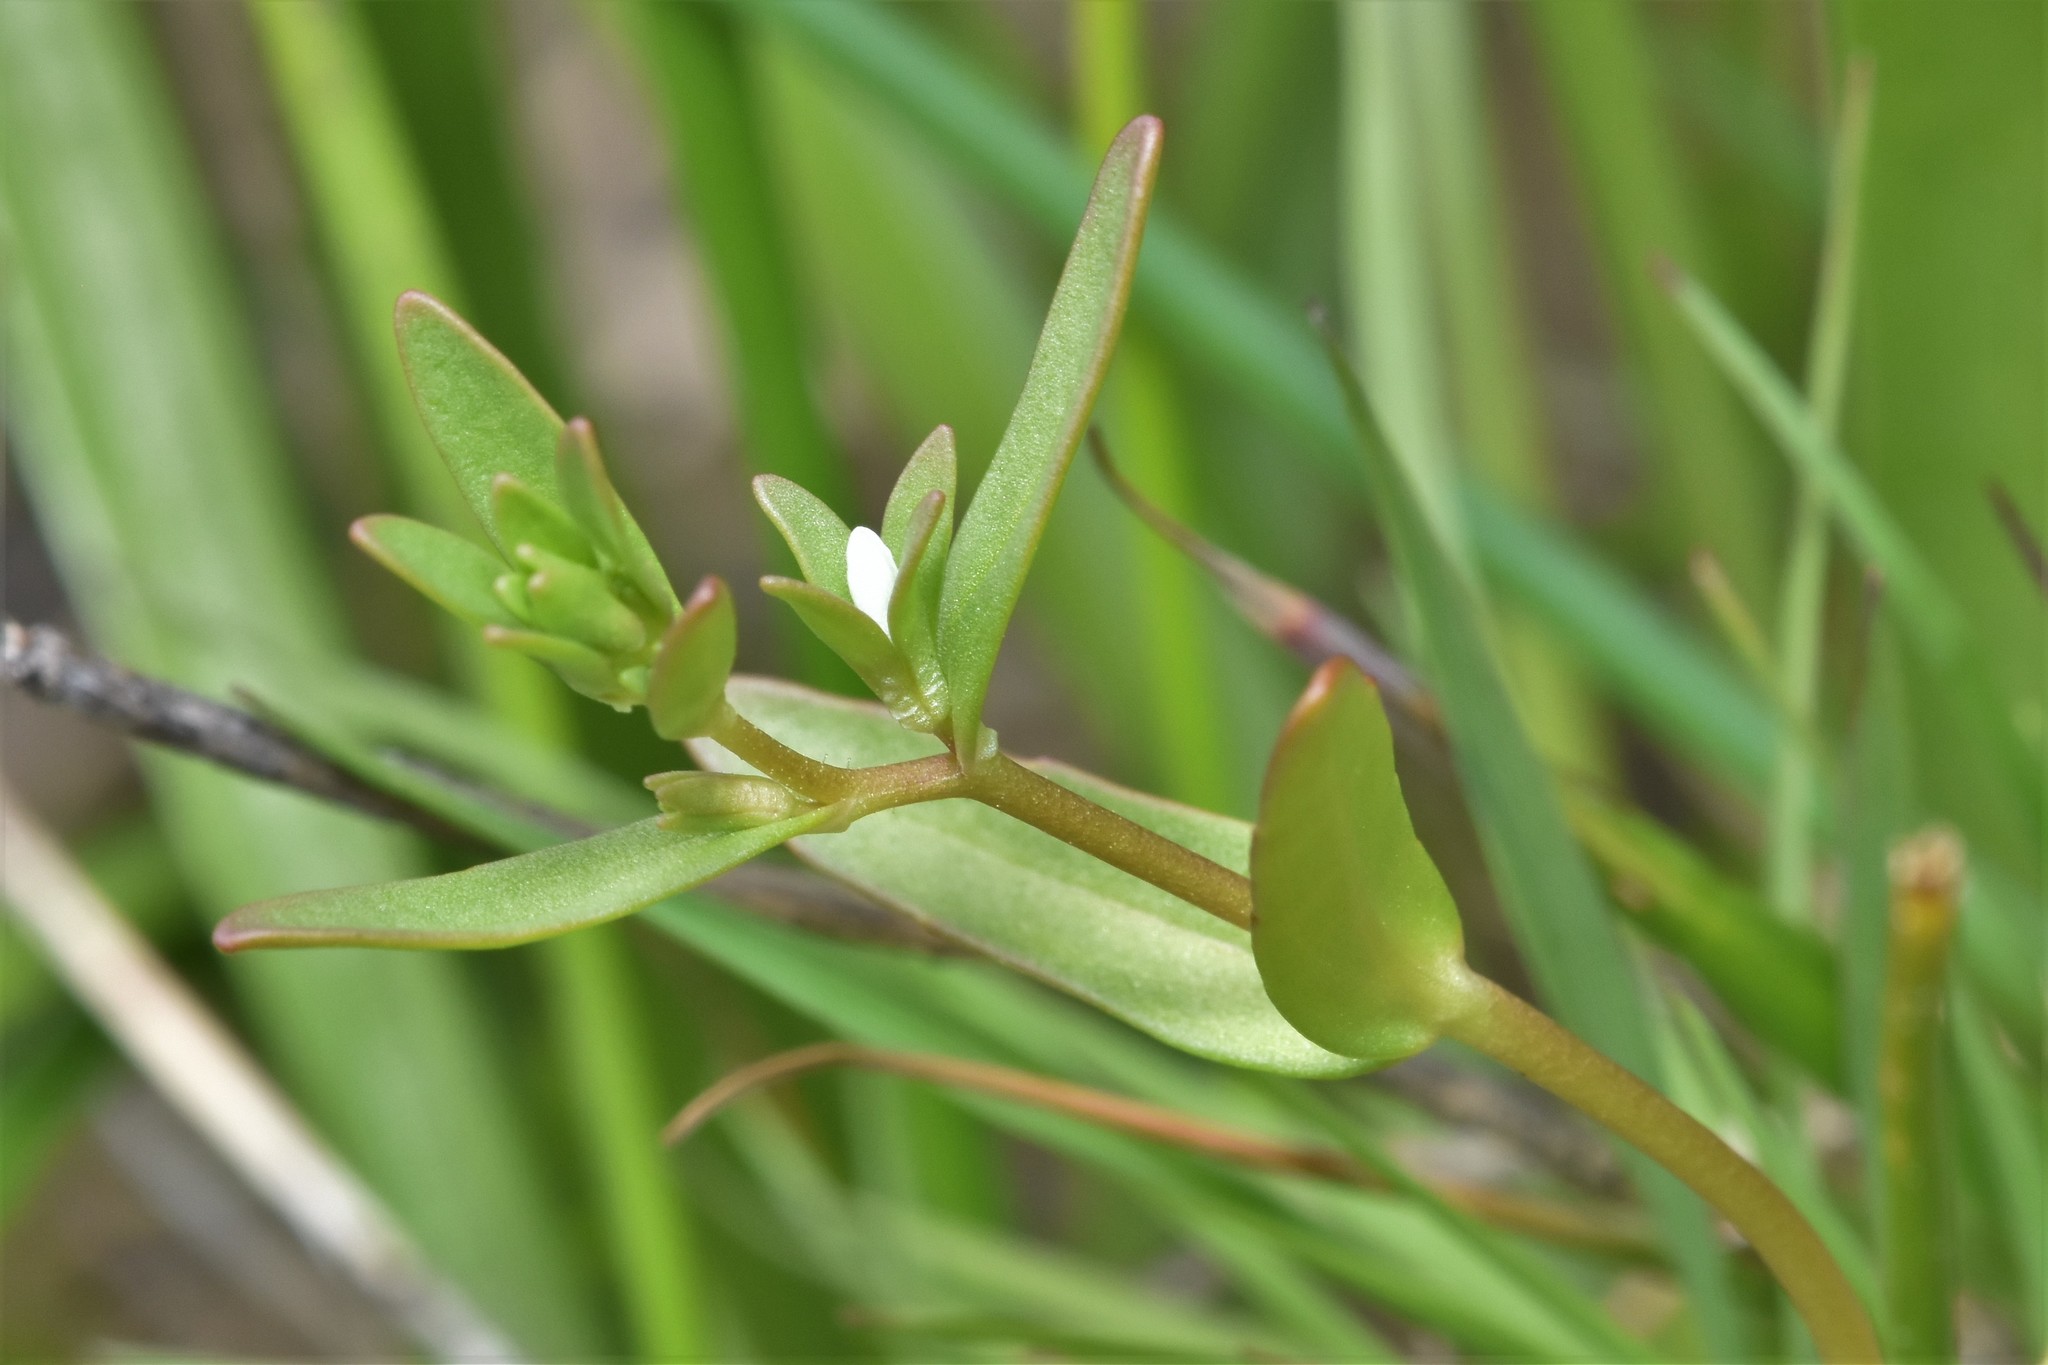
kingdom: Plantae
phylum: Tracheophyta
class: Magnoliopsida
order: Lamiales
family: Plantaginaceae
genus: Veronica
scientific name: Veronica peregrina
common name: Neckweed
